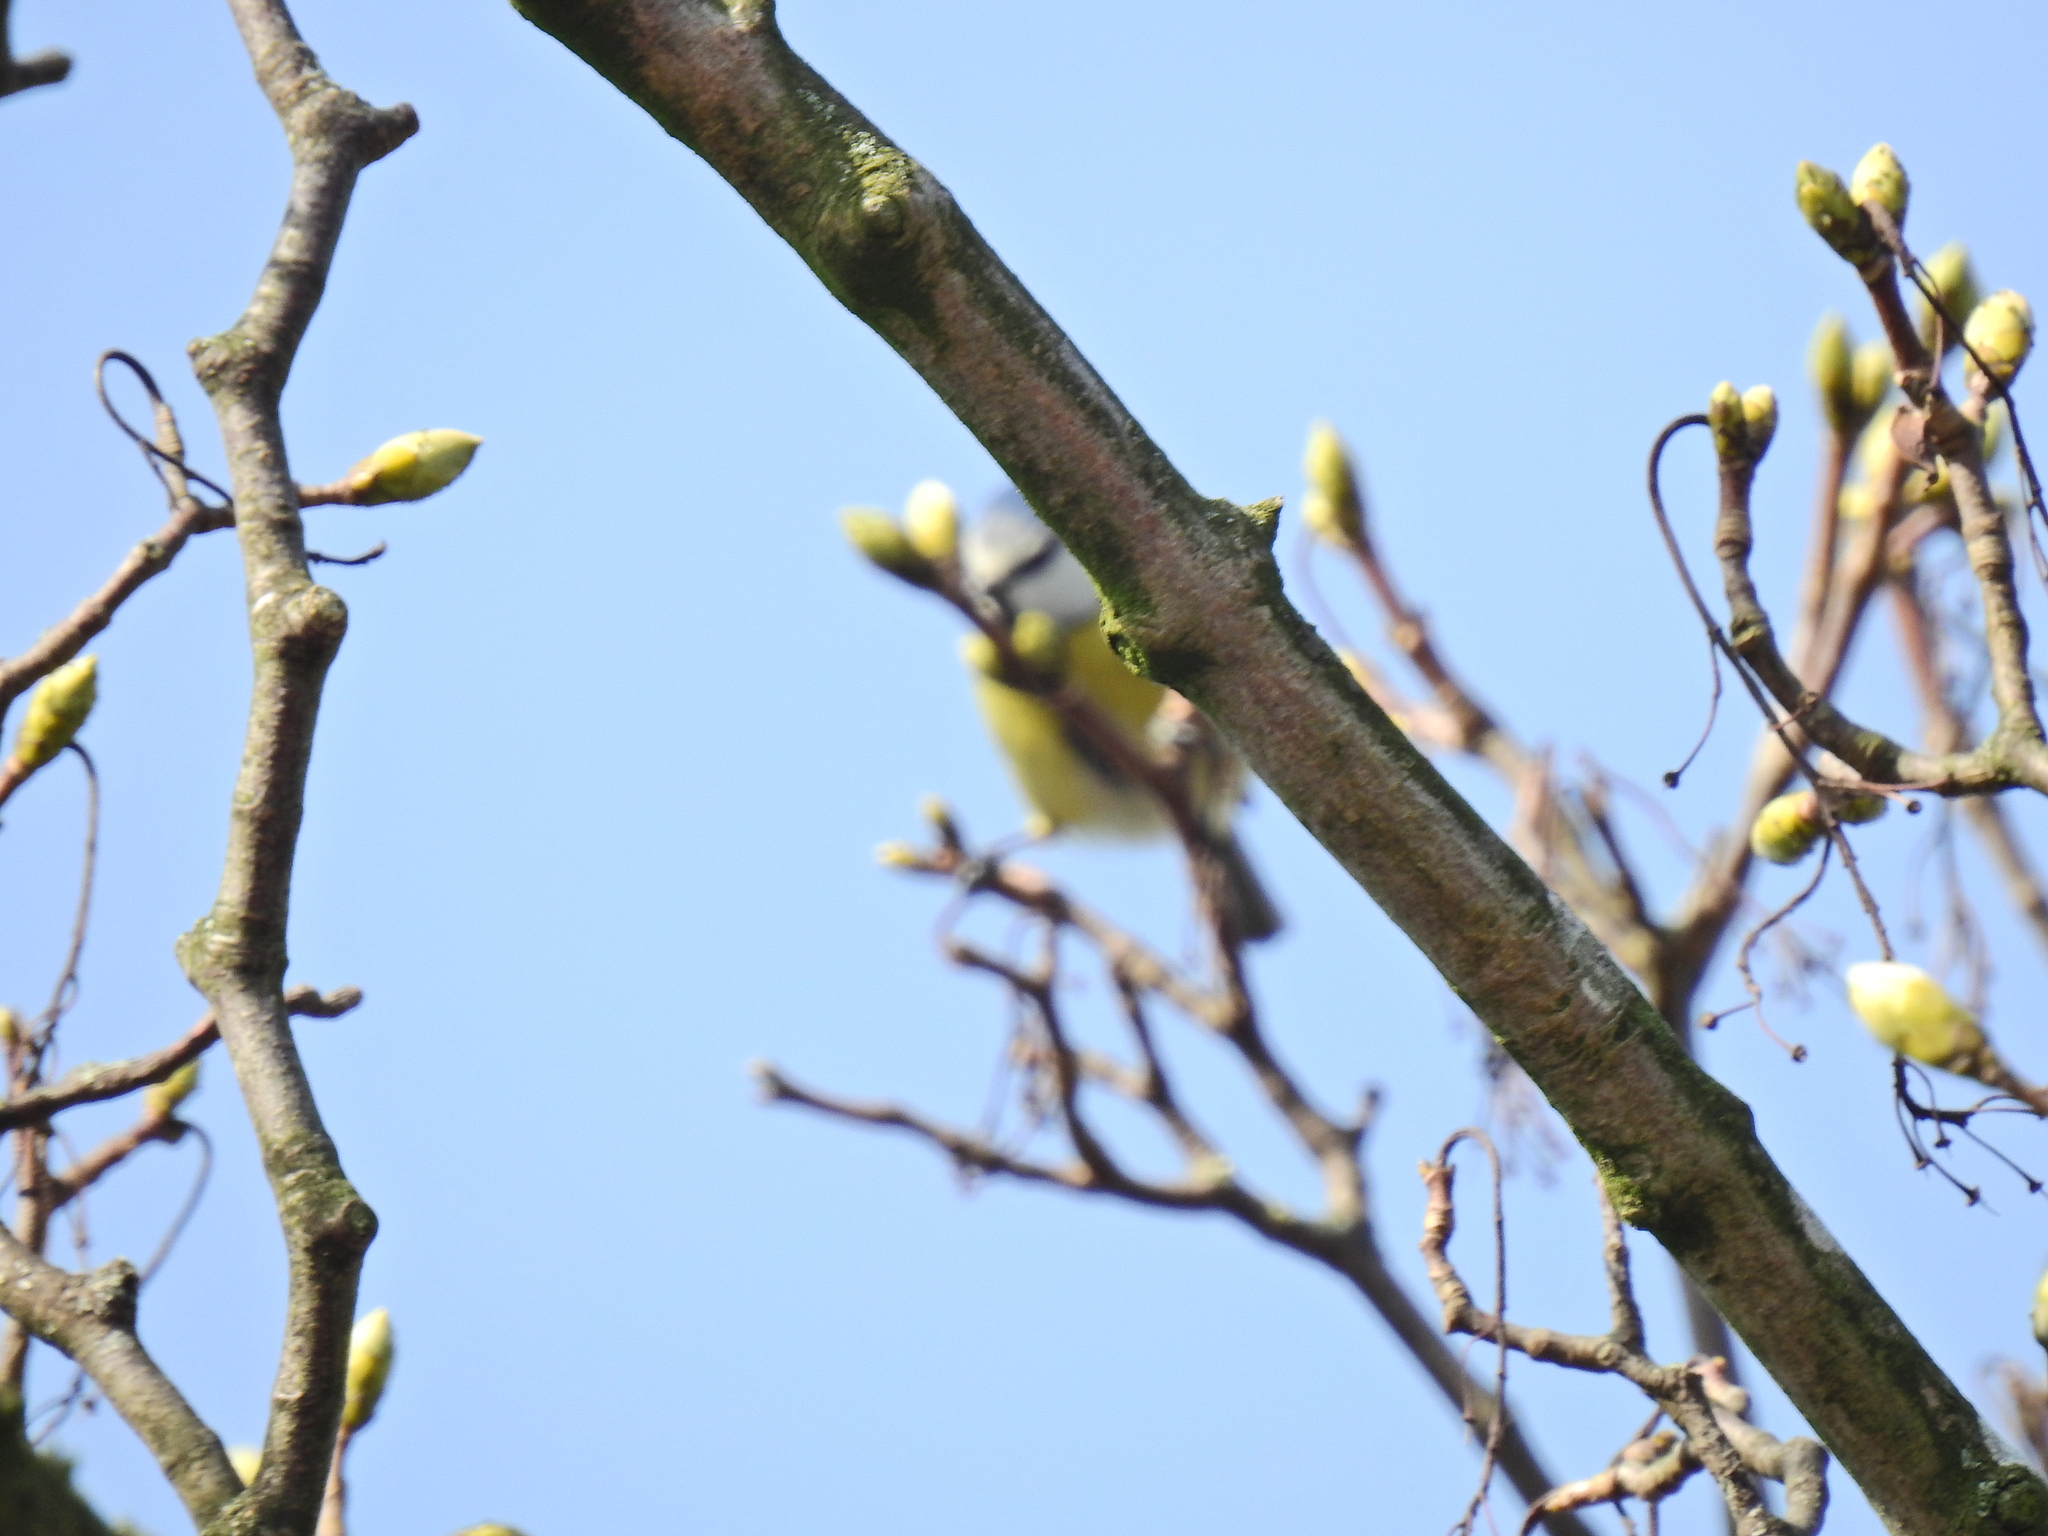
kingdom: Animalia
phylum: Chordata
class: Aves
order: Passeriformes
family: Paridae
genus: Cyanistes
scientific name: Cyanistes caeruleus
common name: Eurasian blue tit
